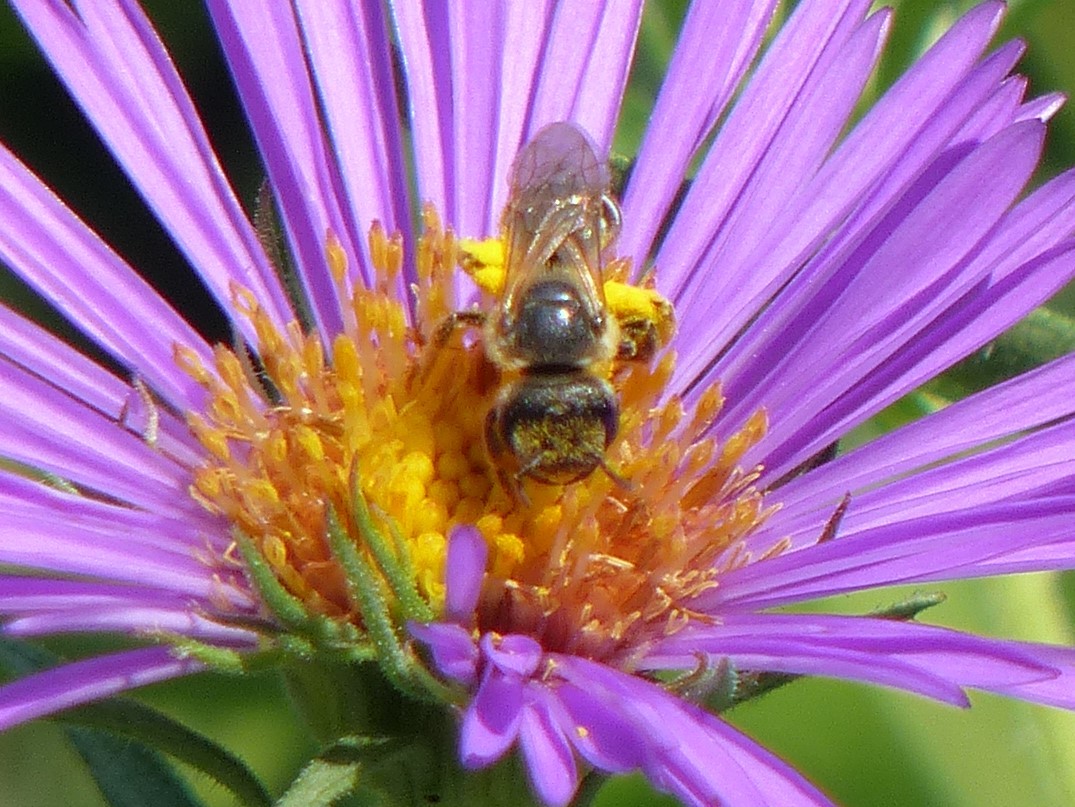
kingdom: Animalia
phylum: Arthropoda
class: Insecta
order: Hymenoptera
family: Halictidae
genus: Halictus
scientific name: Halictus ligatus
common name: Ligated furrow bee
